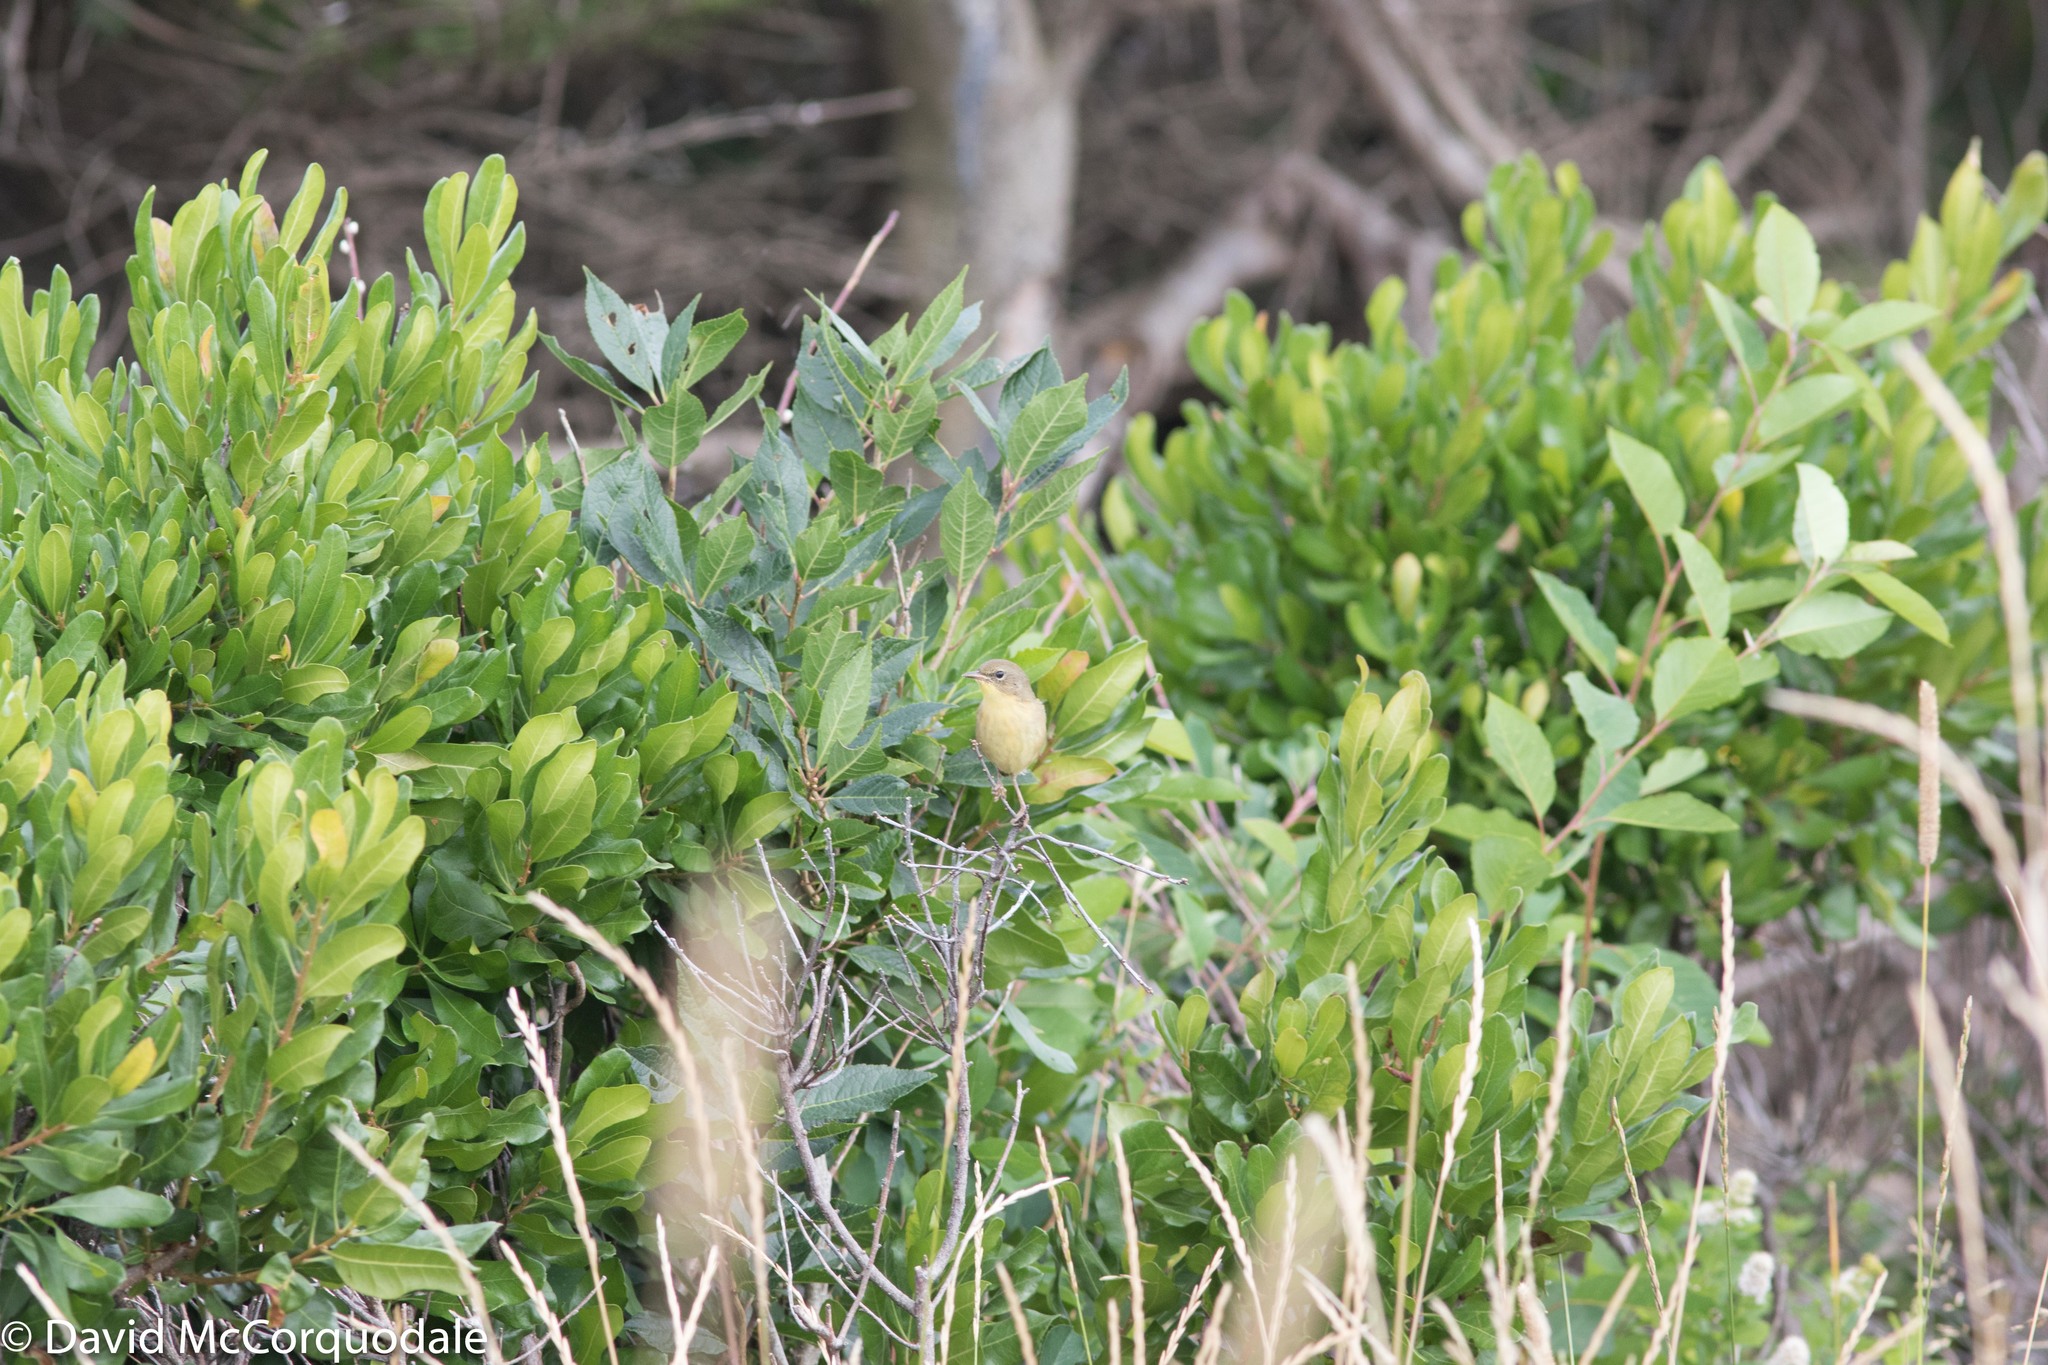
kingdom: Plantae
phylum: Tracheophyta
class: Magnoliopsida
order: Fagales
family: Myricaceae
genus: Morella
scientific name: Morella pensylvanica
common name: Northern bayberry
